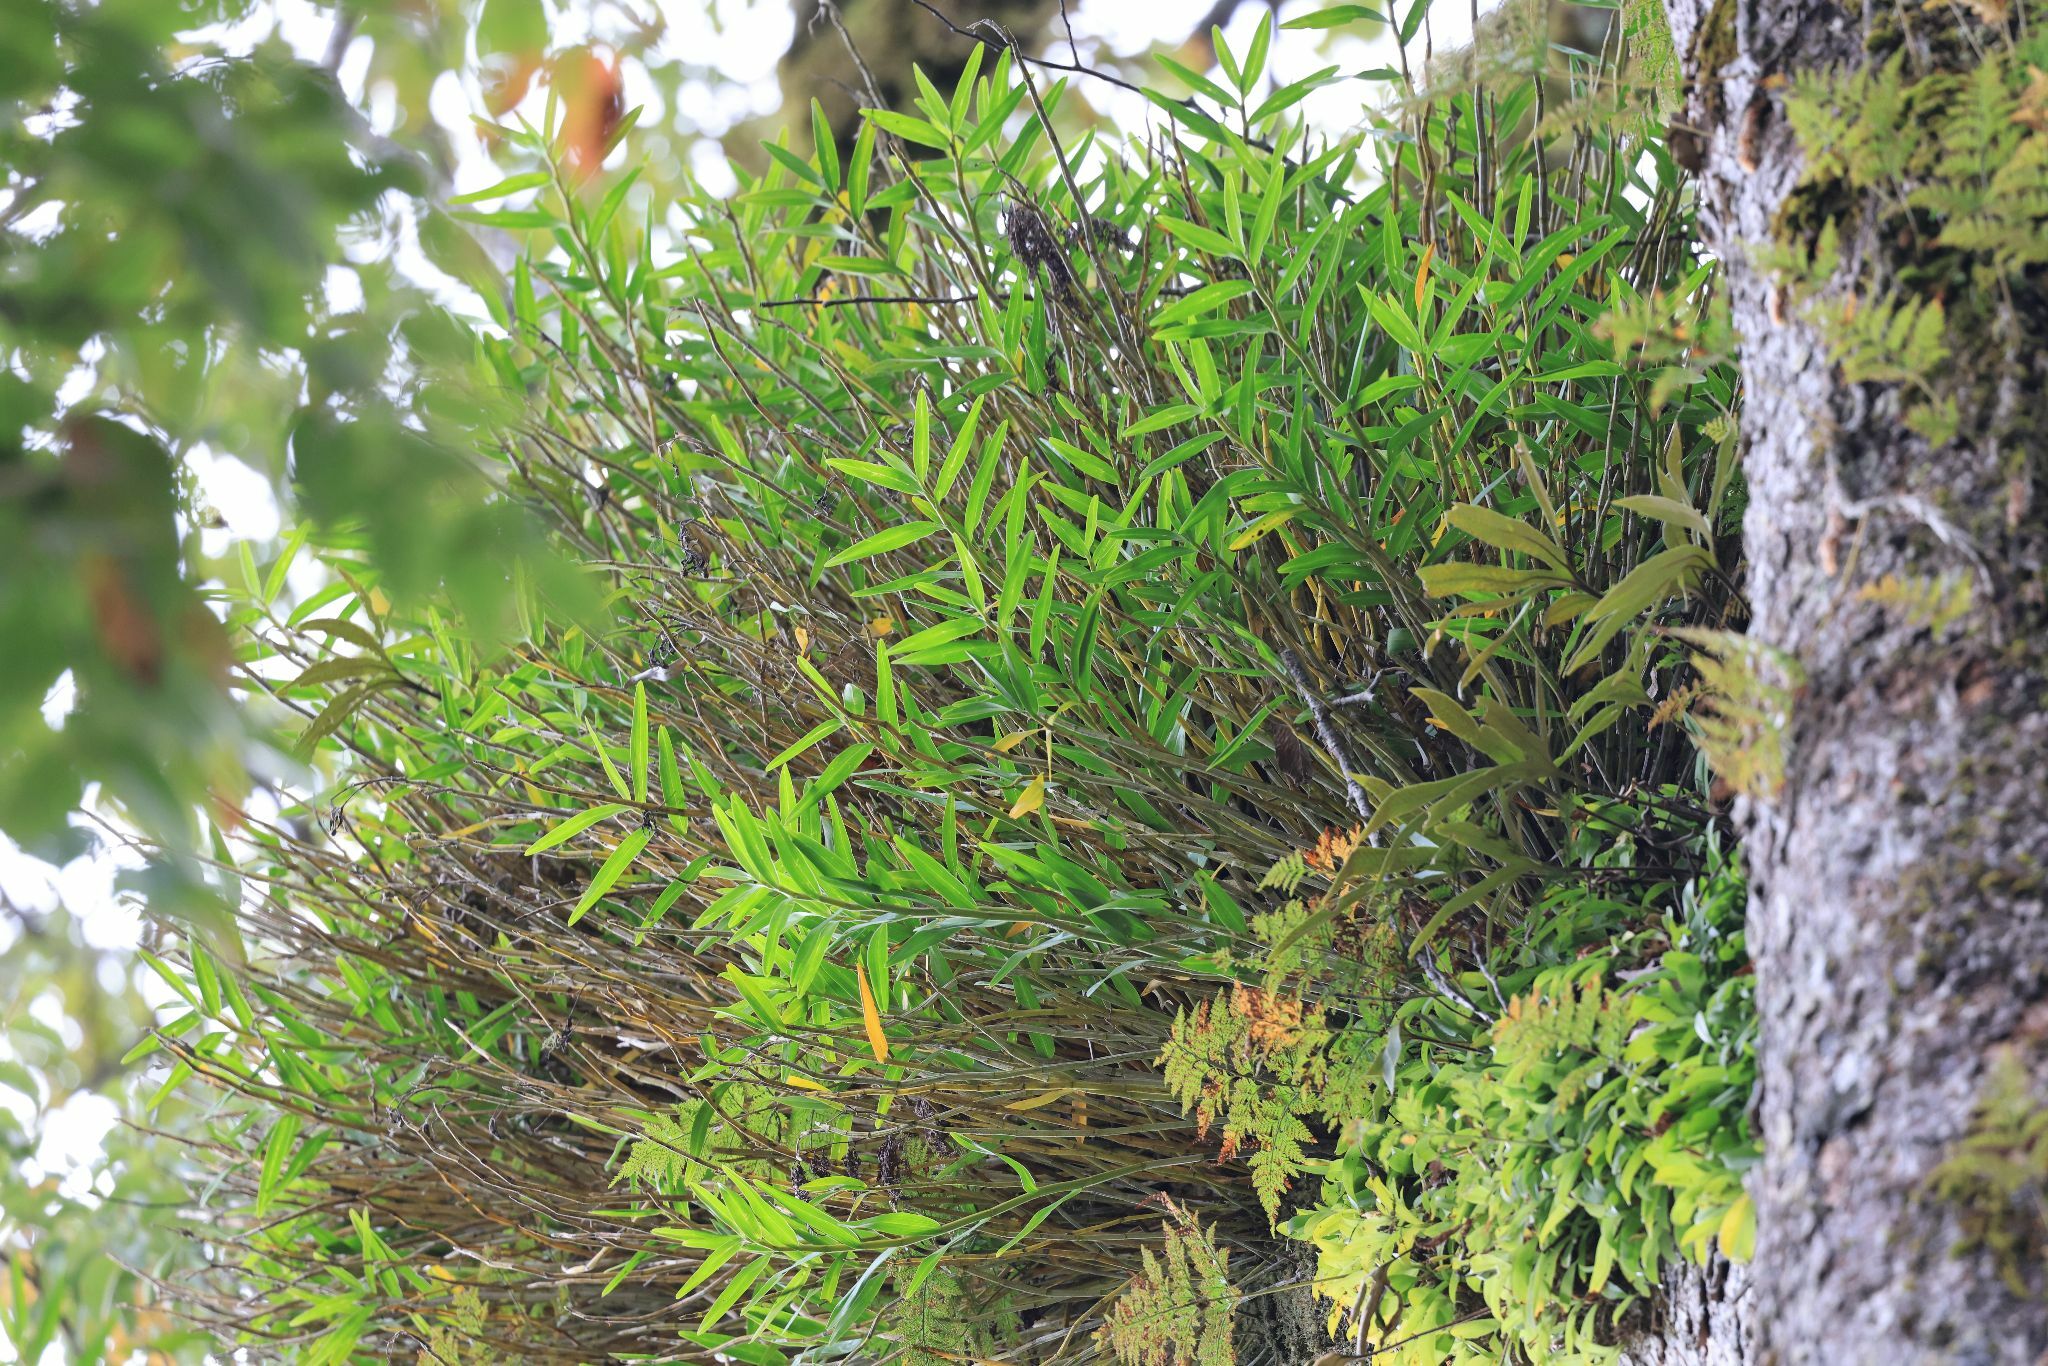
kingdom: Plantae
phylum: Tracheophyta
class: Liliopsida
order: Asparagales
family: Orchidaceae
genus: Dendrobium
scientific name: Dendrobium chryseum
